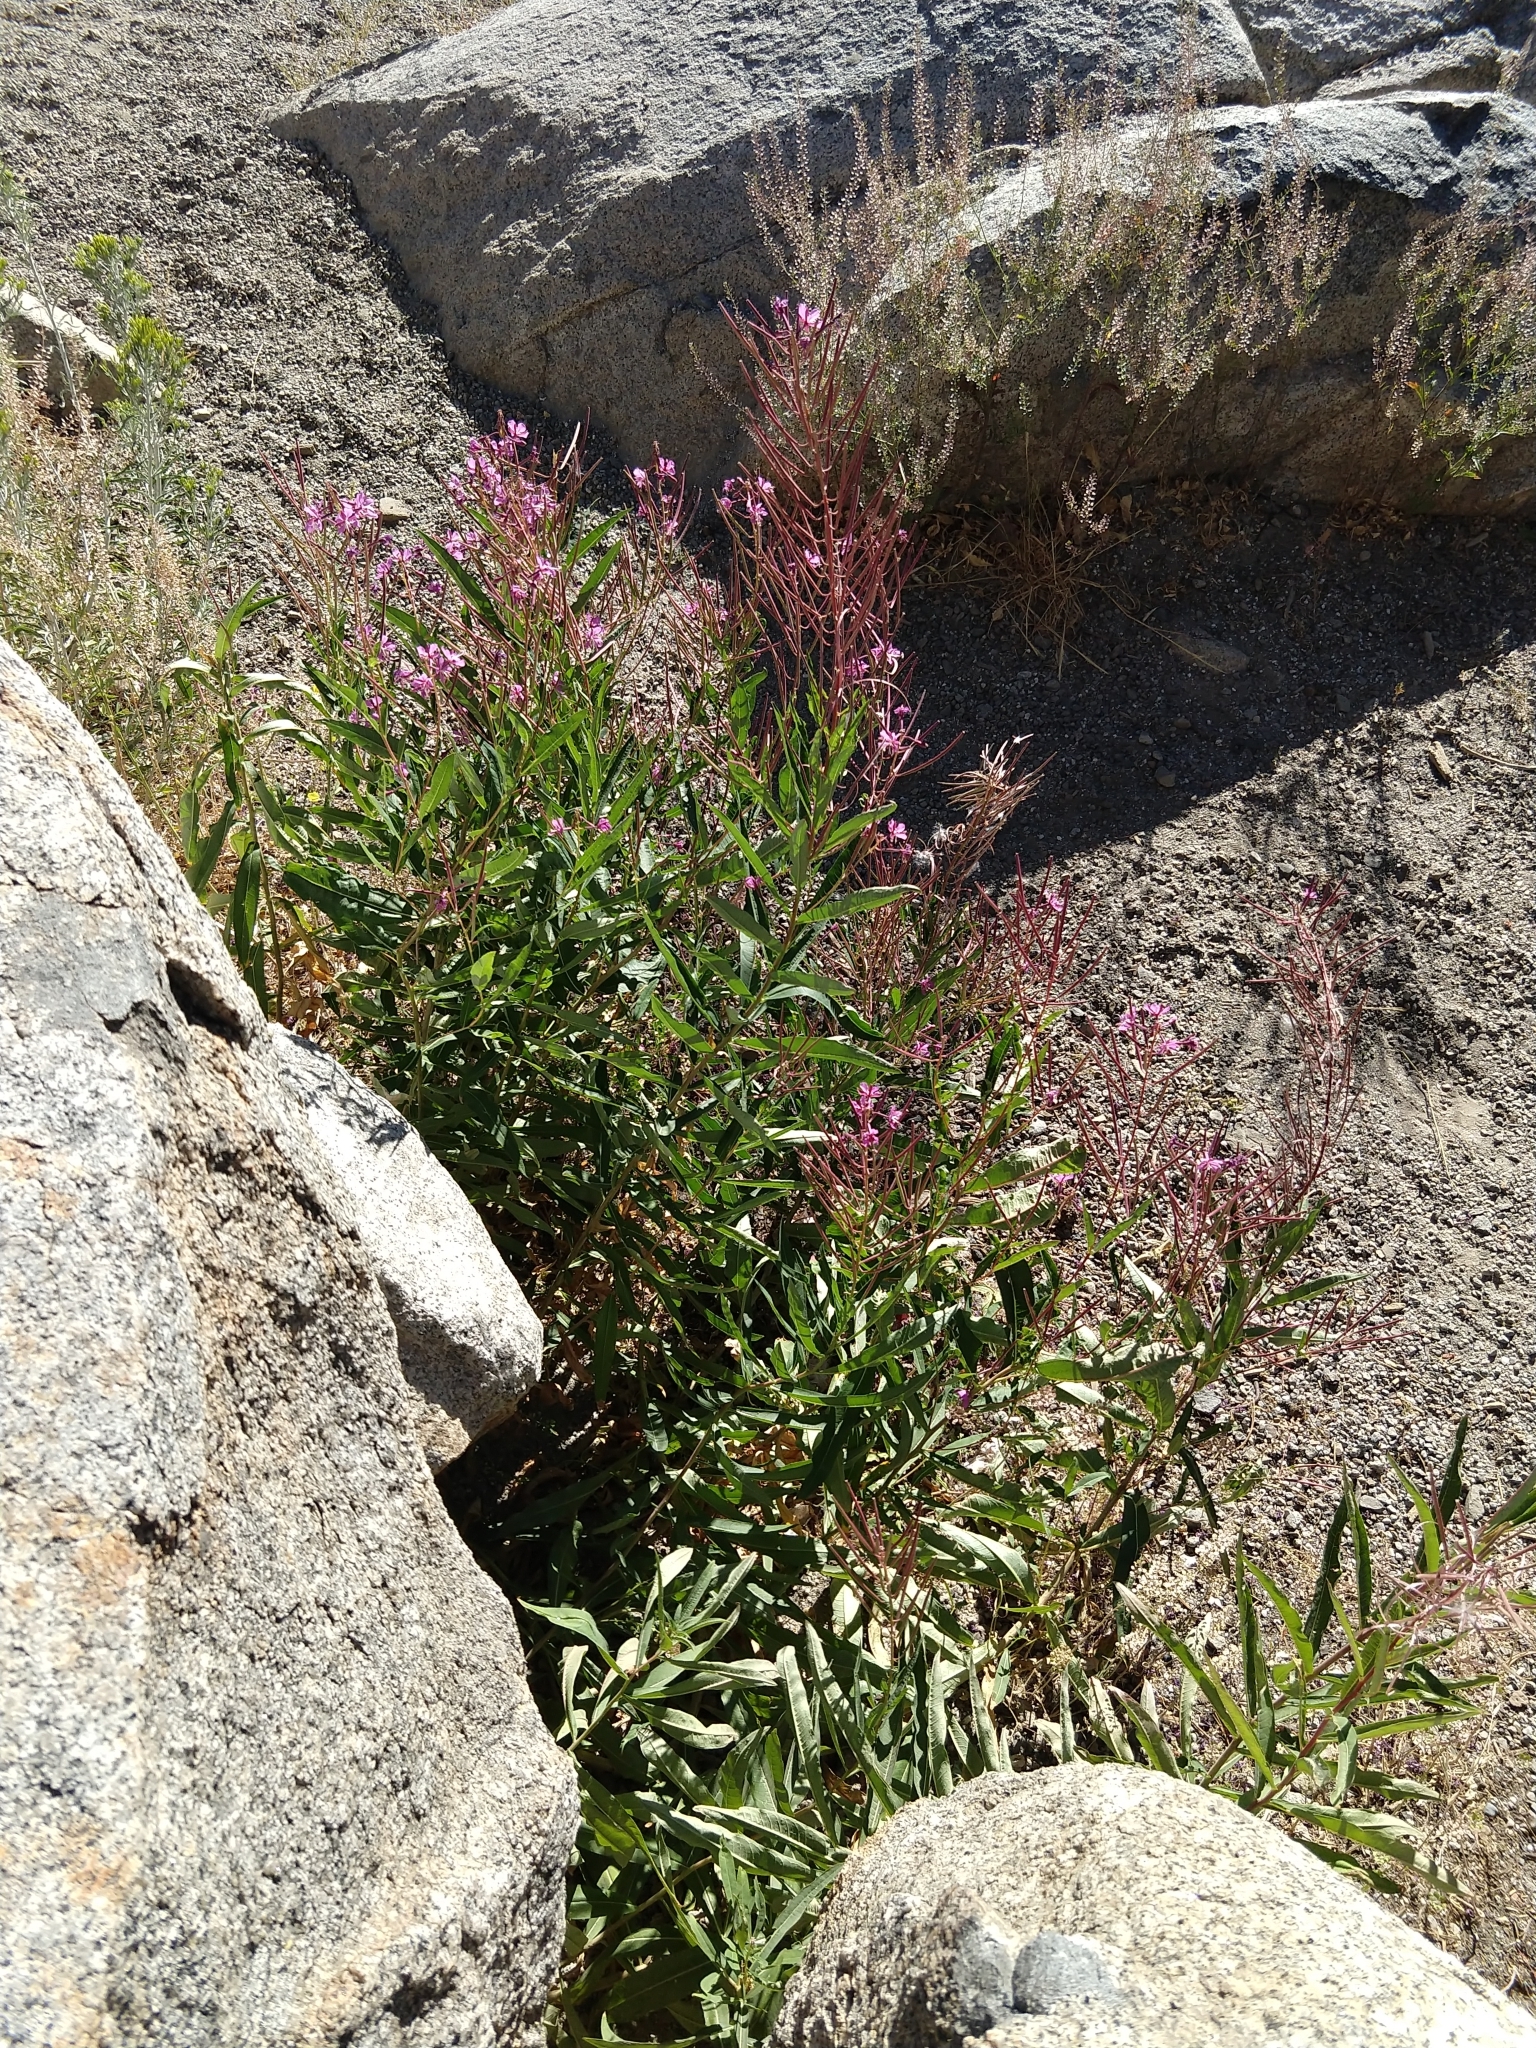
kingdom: Plantae
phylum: Tracheophyta
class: Magnoliopsida
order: Myrtales
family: Onagraceae
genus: Chamaenerion
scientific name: Chamaenerion angustifolium
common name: Fireweed
